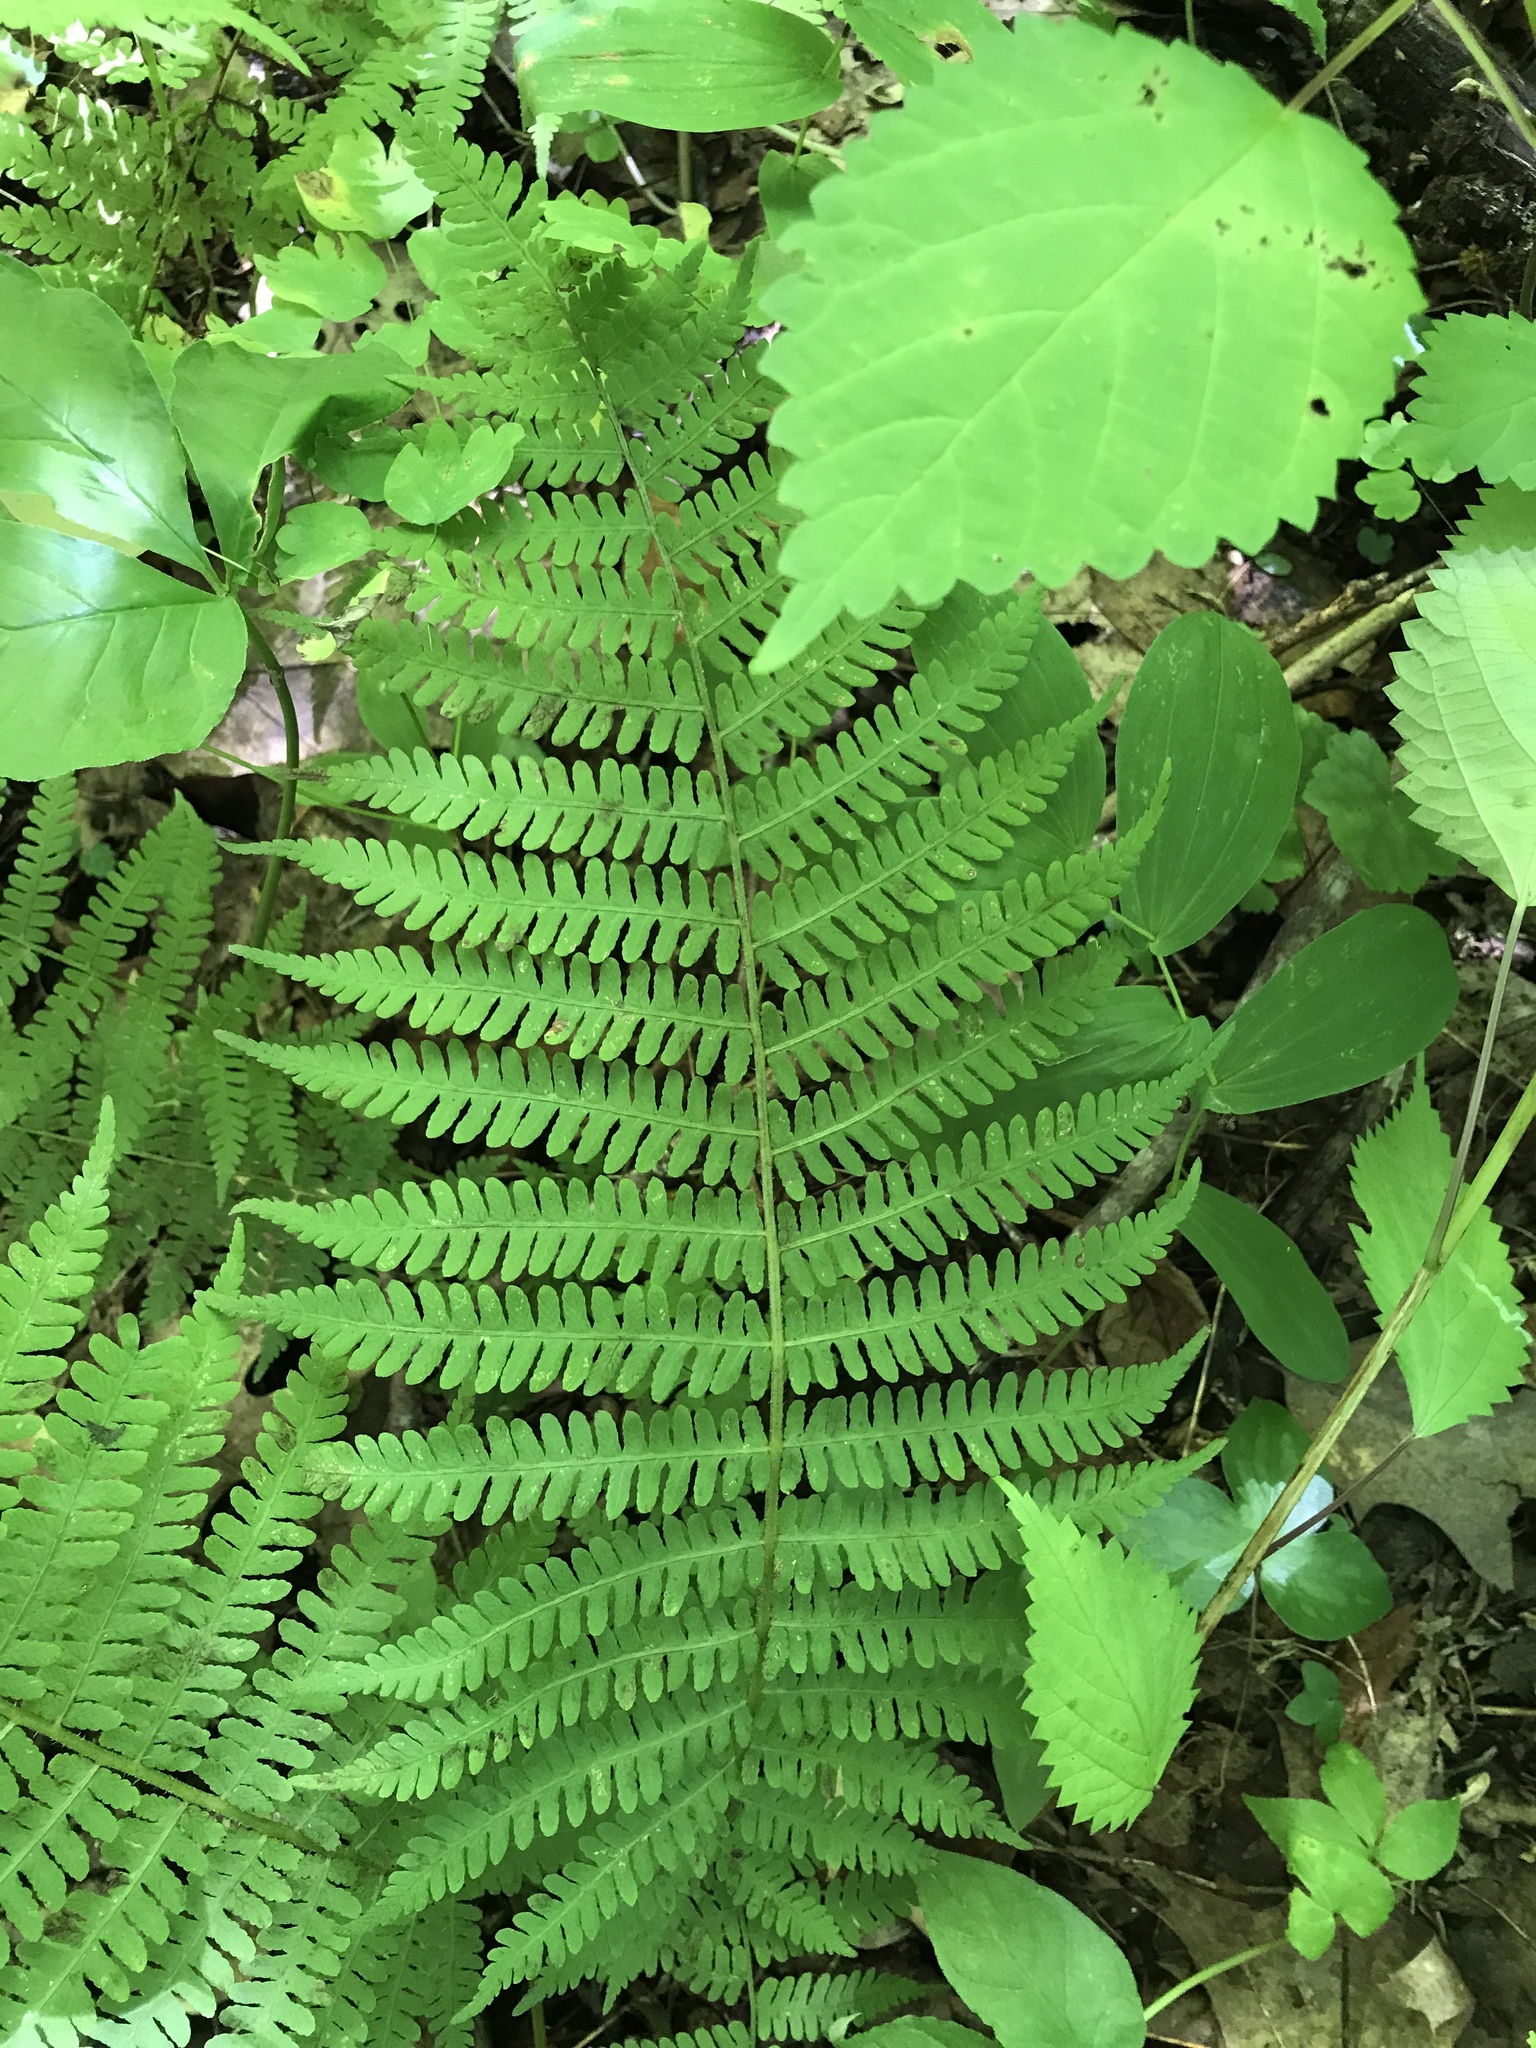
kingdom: Plantae
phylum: Tracheophyta
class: Polypodiopsida
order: Polypodiales
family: Athyriaceae
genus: Deparia
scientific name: Deparia acrostichoides
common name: Silver false spleenwort
